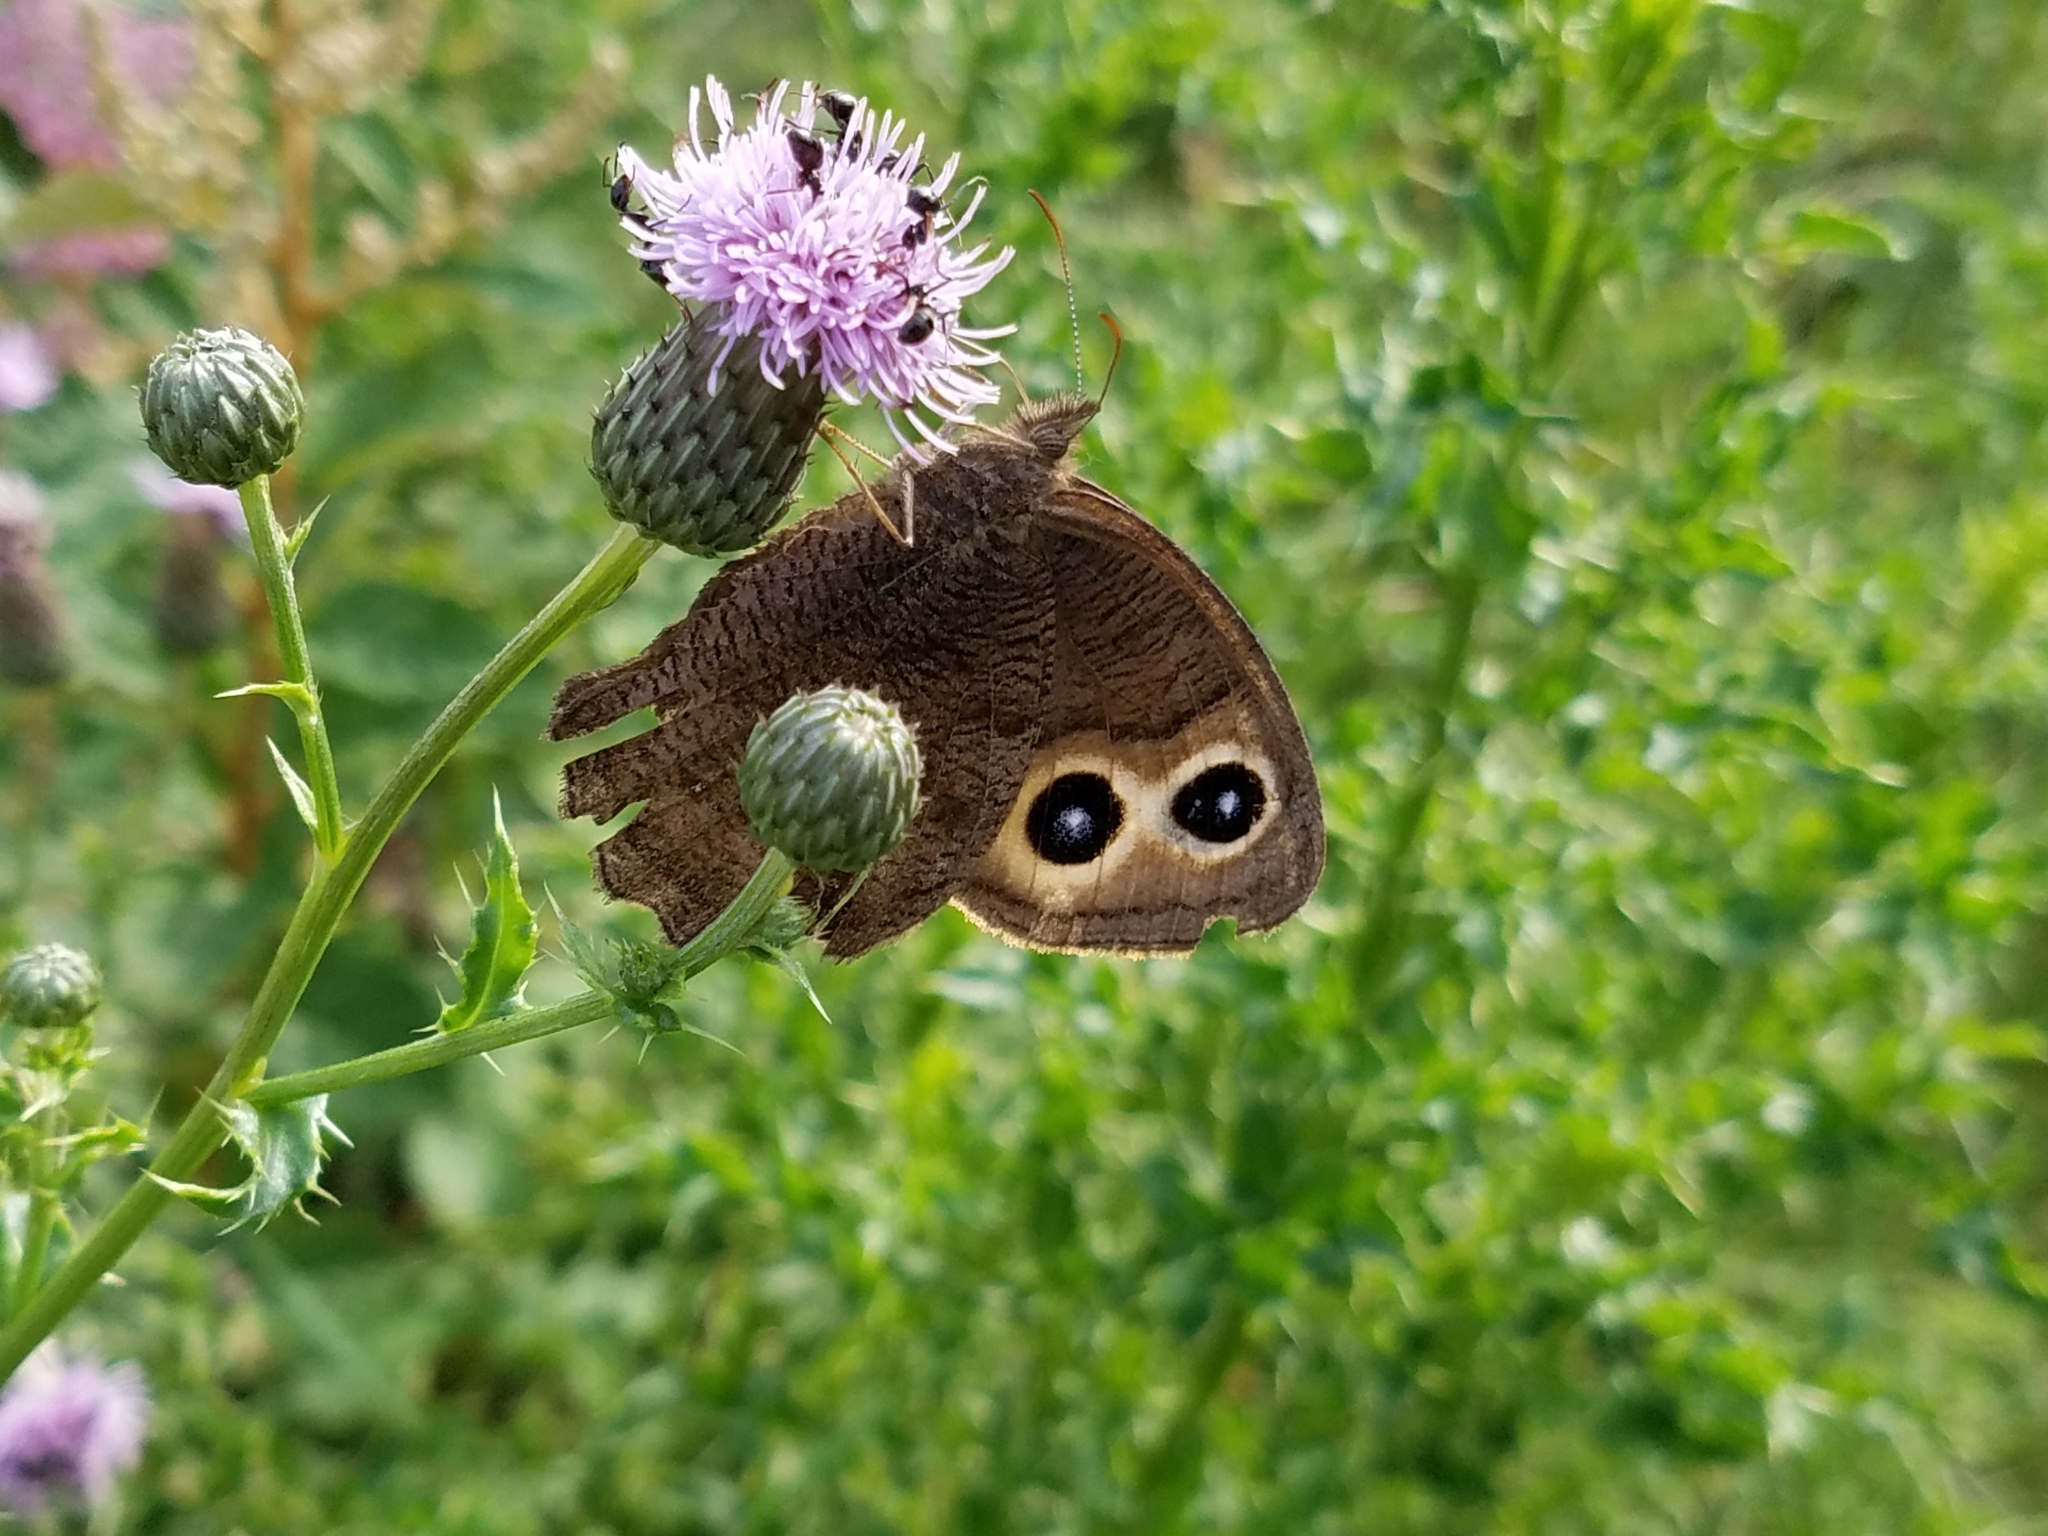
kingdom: Animalia
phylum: Arthropoda
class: Insecta
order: Lepidoptera
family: Nymphalidae
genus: Cercyonis
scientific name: Cercyonis pegala
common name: Common wood-nymph
